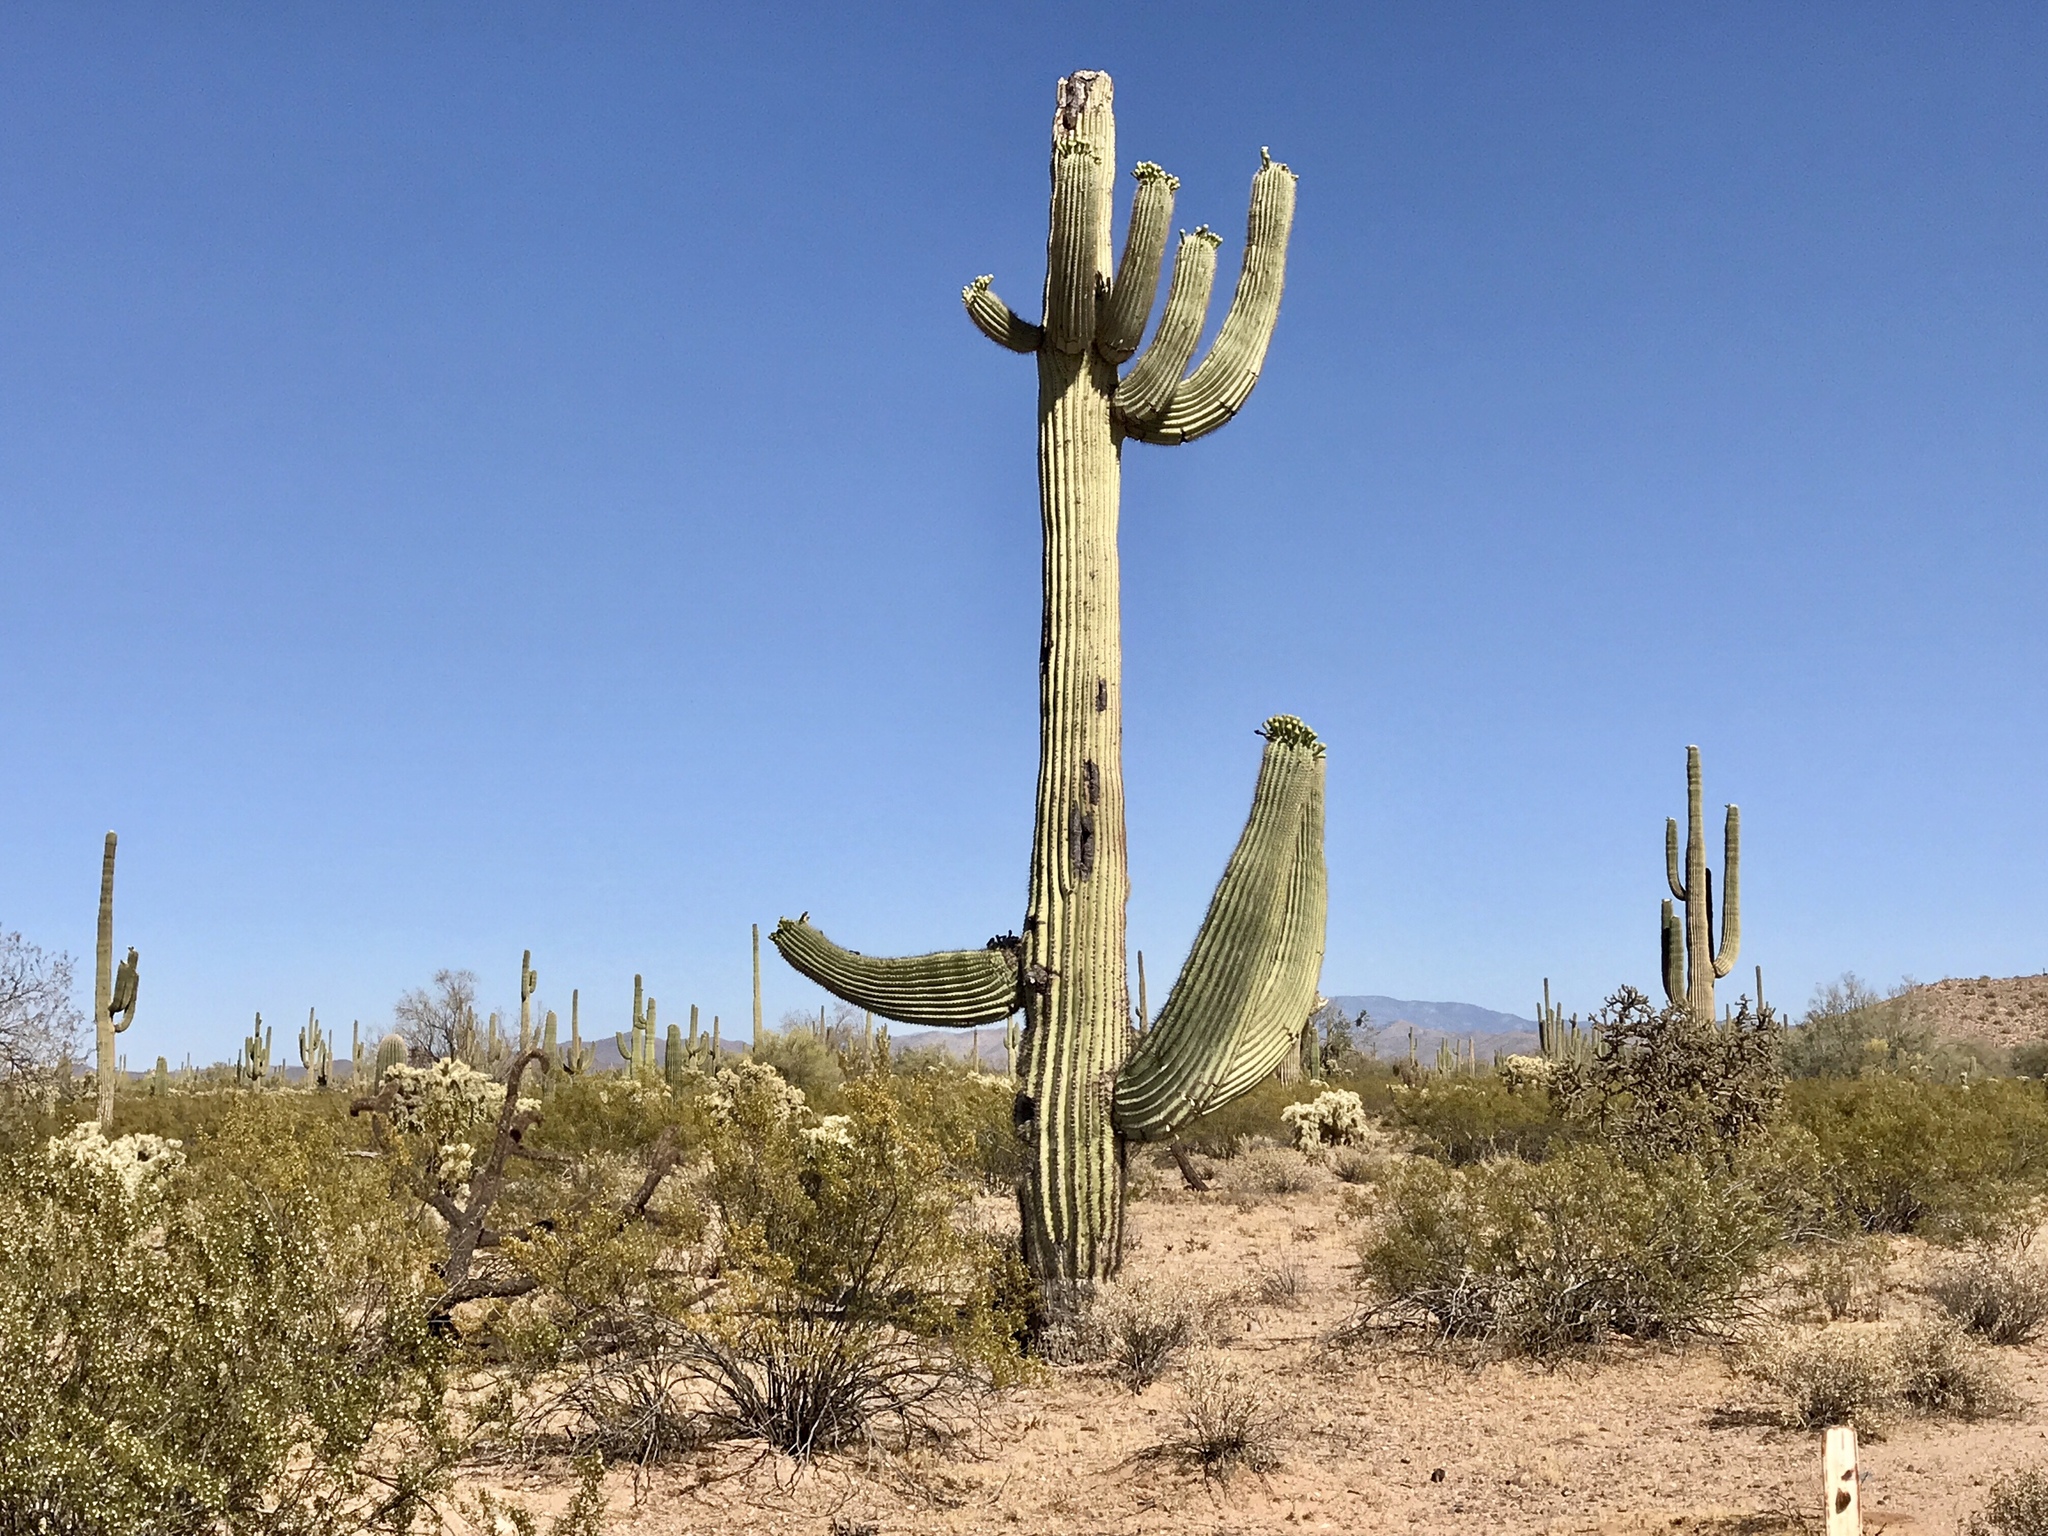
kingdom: Plantae
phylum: Tracheophyta
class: Magnoliopsida
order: Caryophyllales
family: Cactaceae
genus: Carnegiea
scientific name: Carnegiea gigantea
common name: Saguaro
